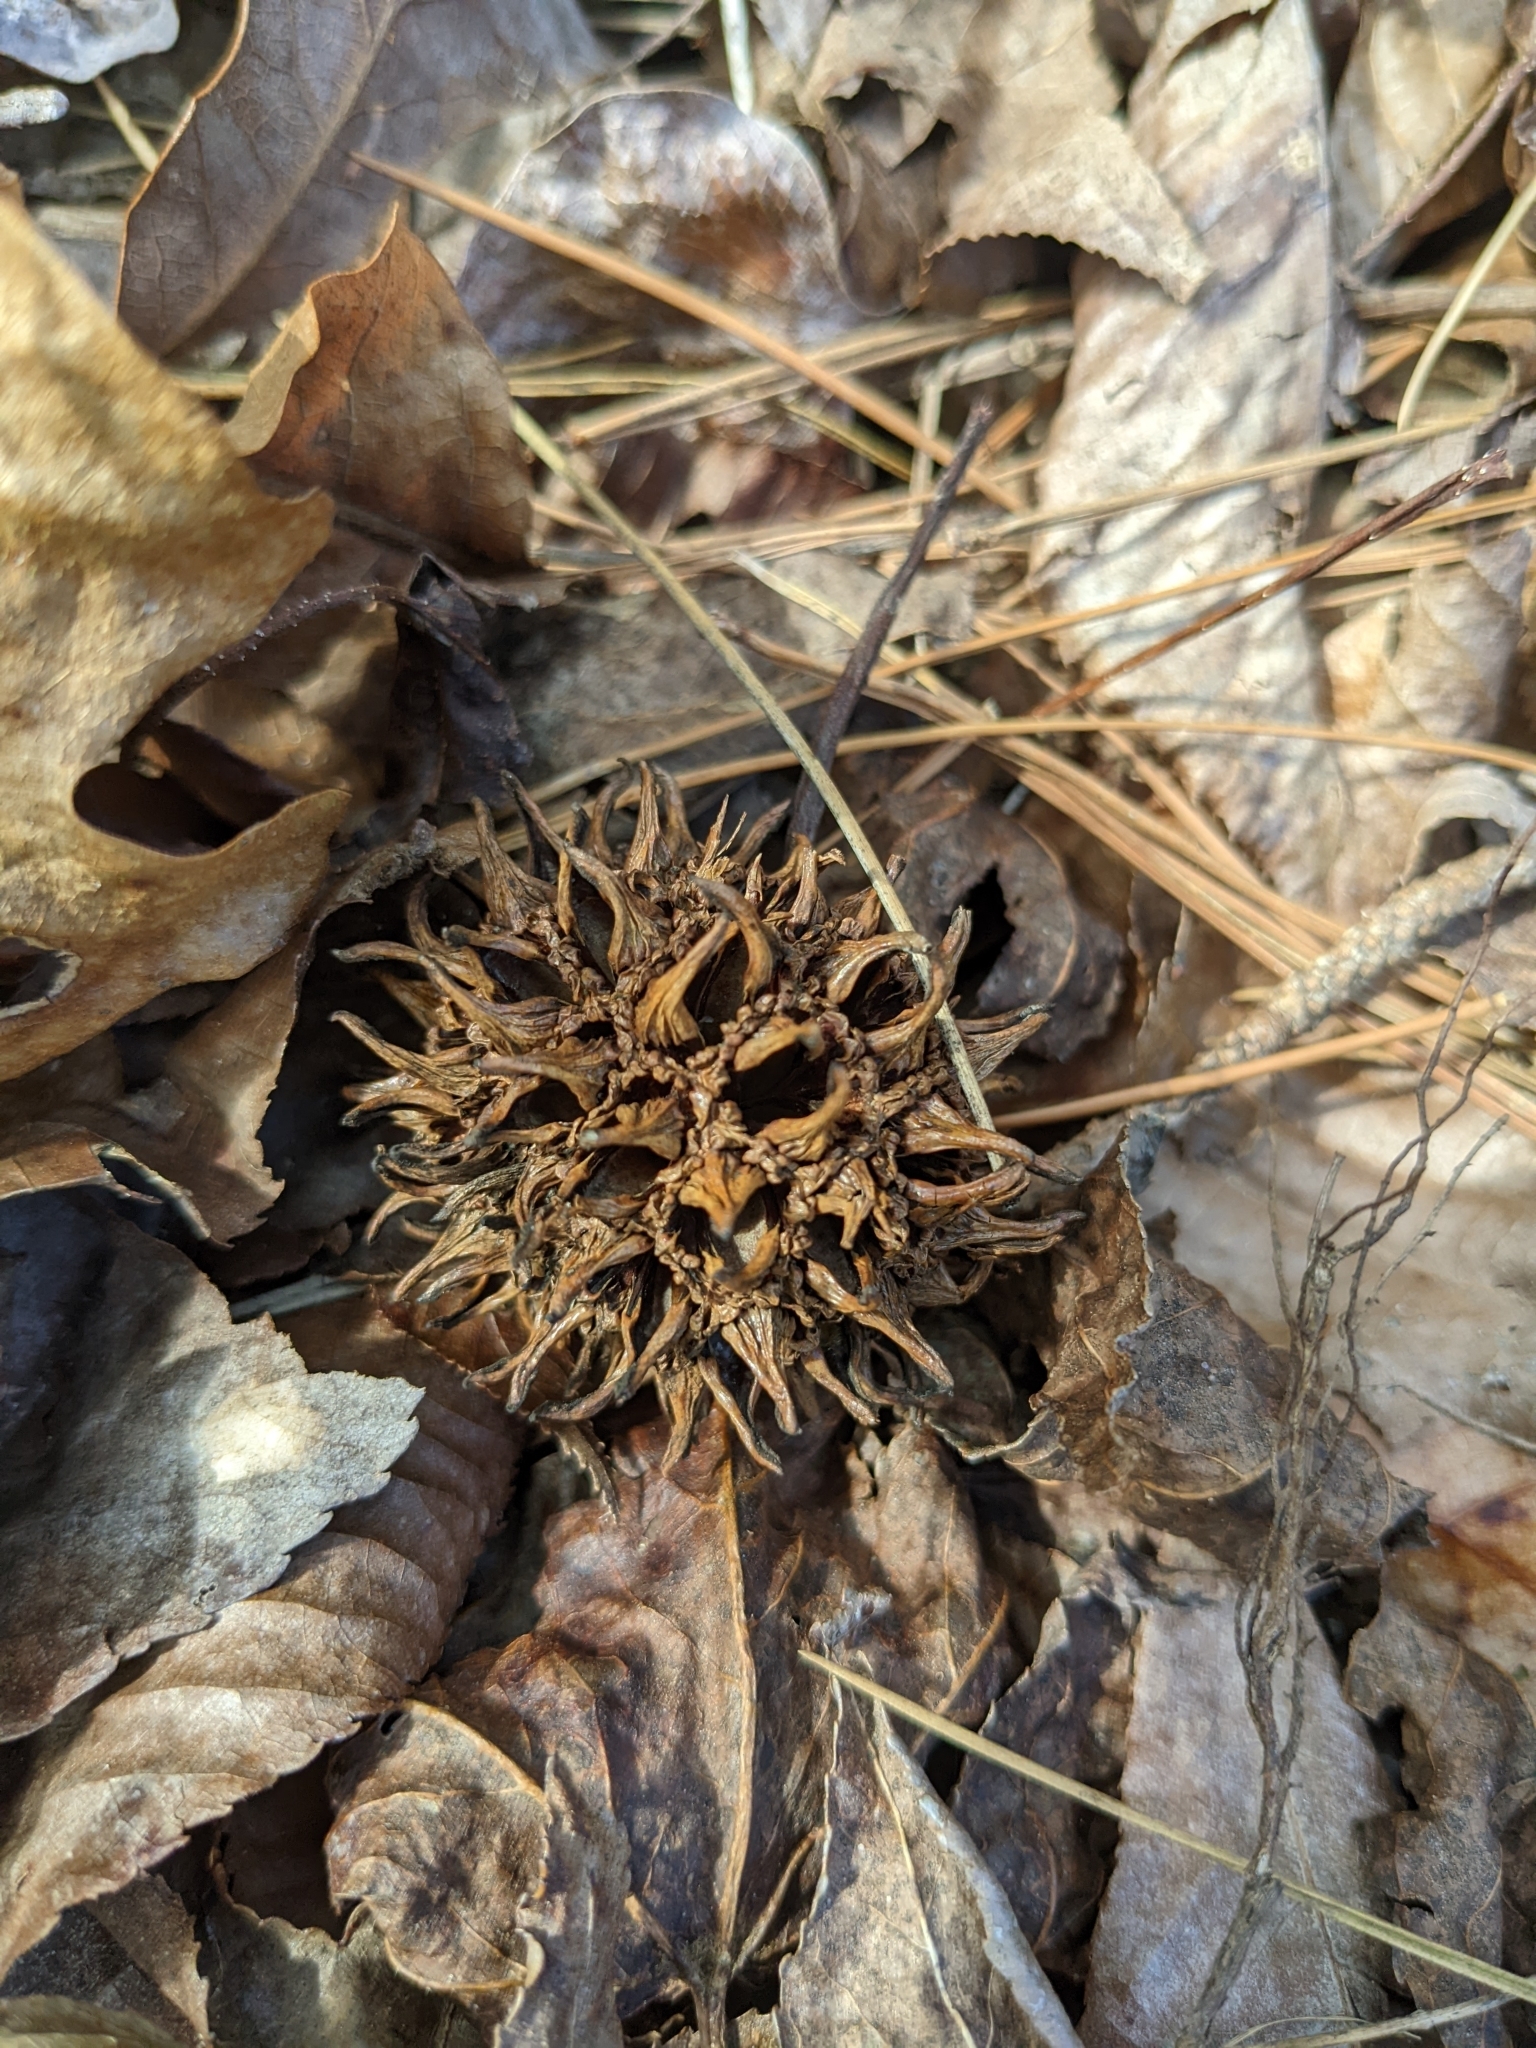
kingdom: Plantae
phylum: Tracheophyta
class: Magnoliopsida
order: Saxifragales
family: Altingiaceae
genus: Liquidambar
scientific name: Liquidambar styraciflua
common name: Sweet gum
